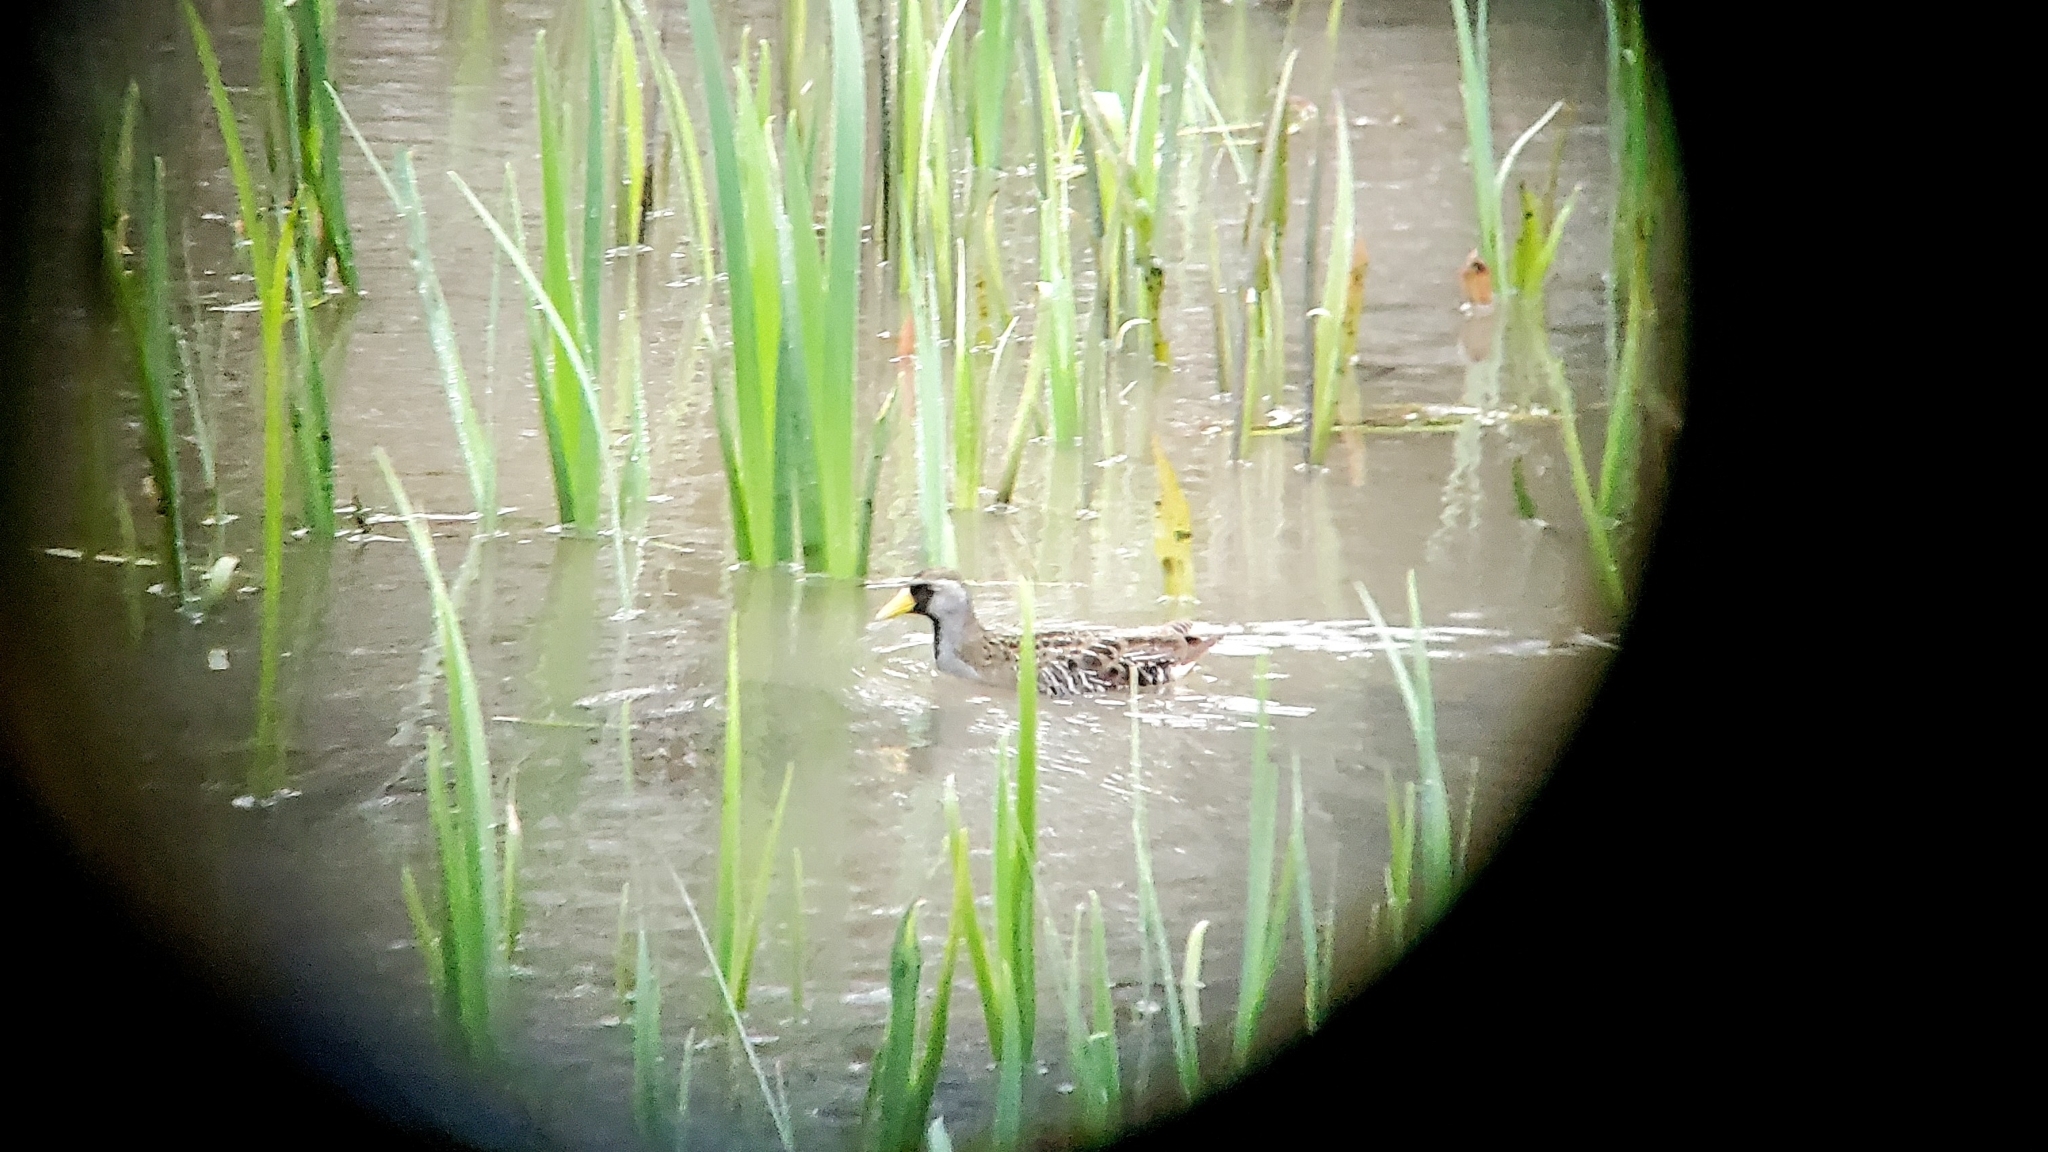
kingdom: Animalia
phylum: Chordata
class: Aves
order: Gruiformes
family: Rallidae
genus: Porzana
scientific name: Porzana carolina
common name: Sora
